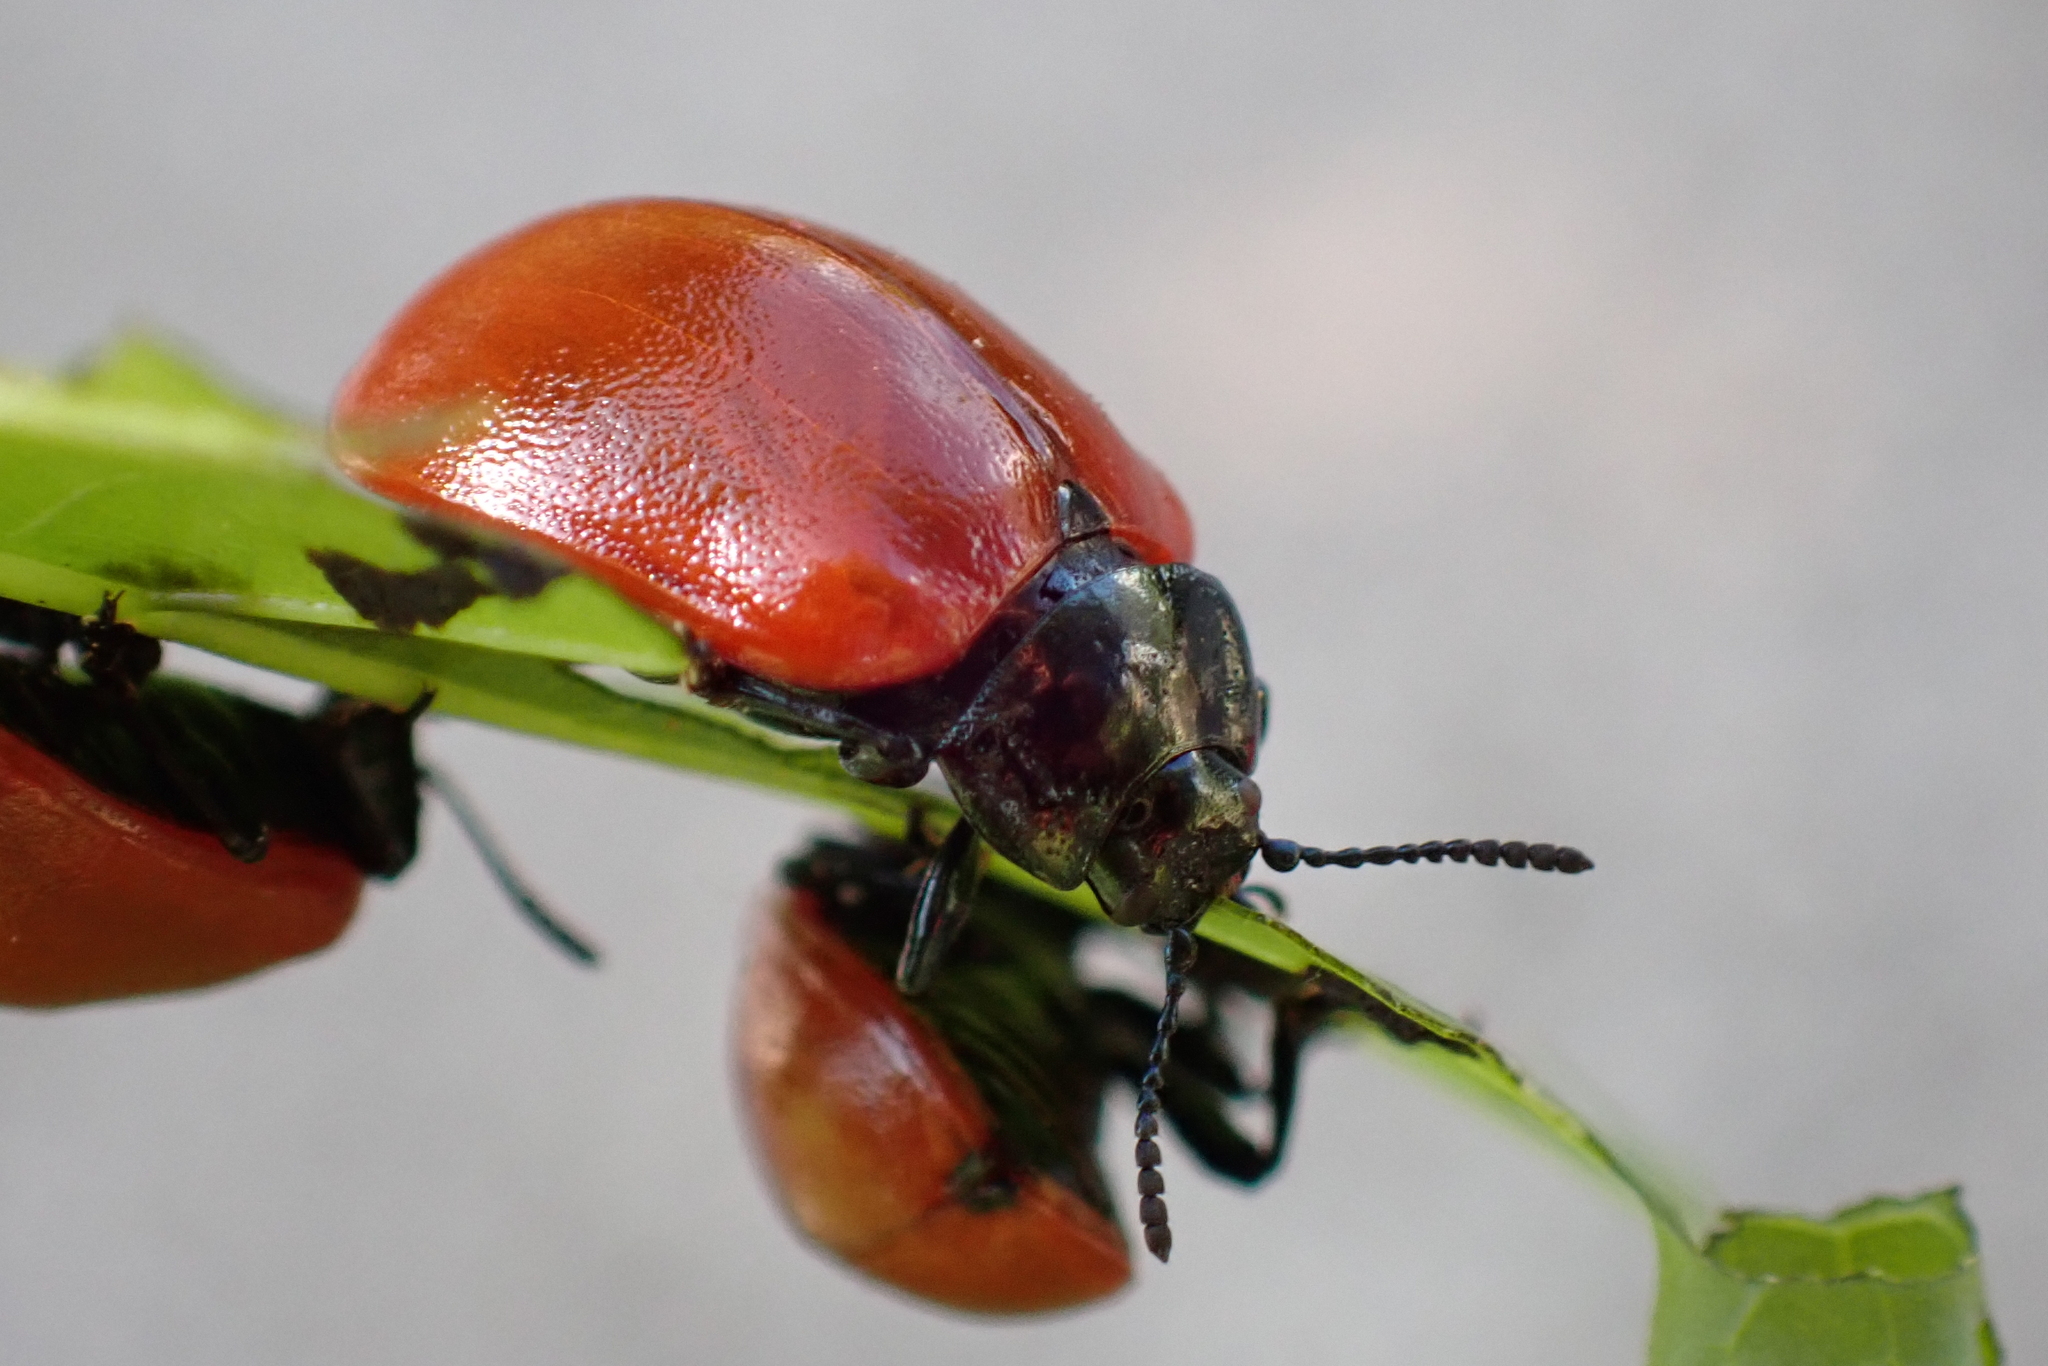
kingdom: Animalia
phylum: Arthropoda
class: Insecta
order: Coleoptera
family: Chrysomelidae
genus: Chrysomela
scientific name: Chrysomela populi
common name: Red poplar leaf beetle
